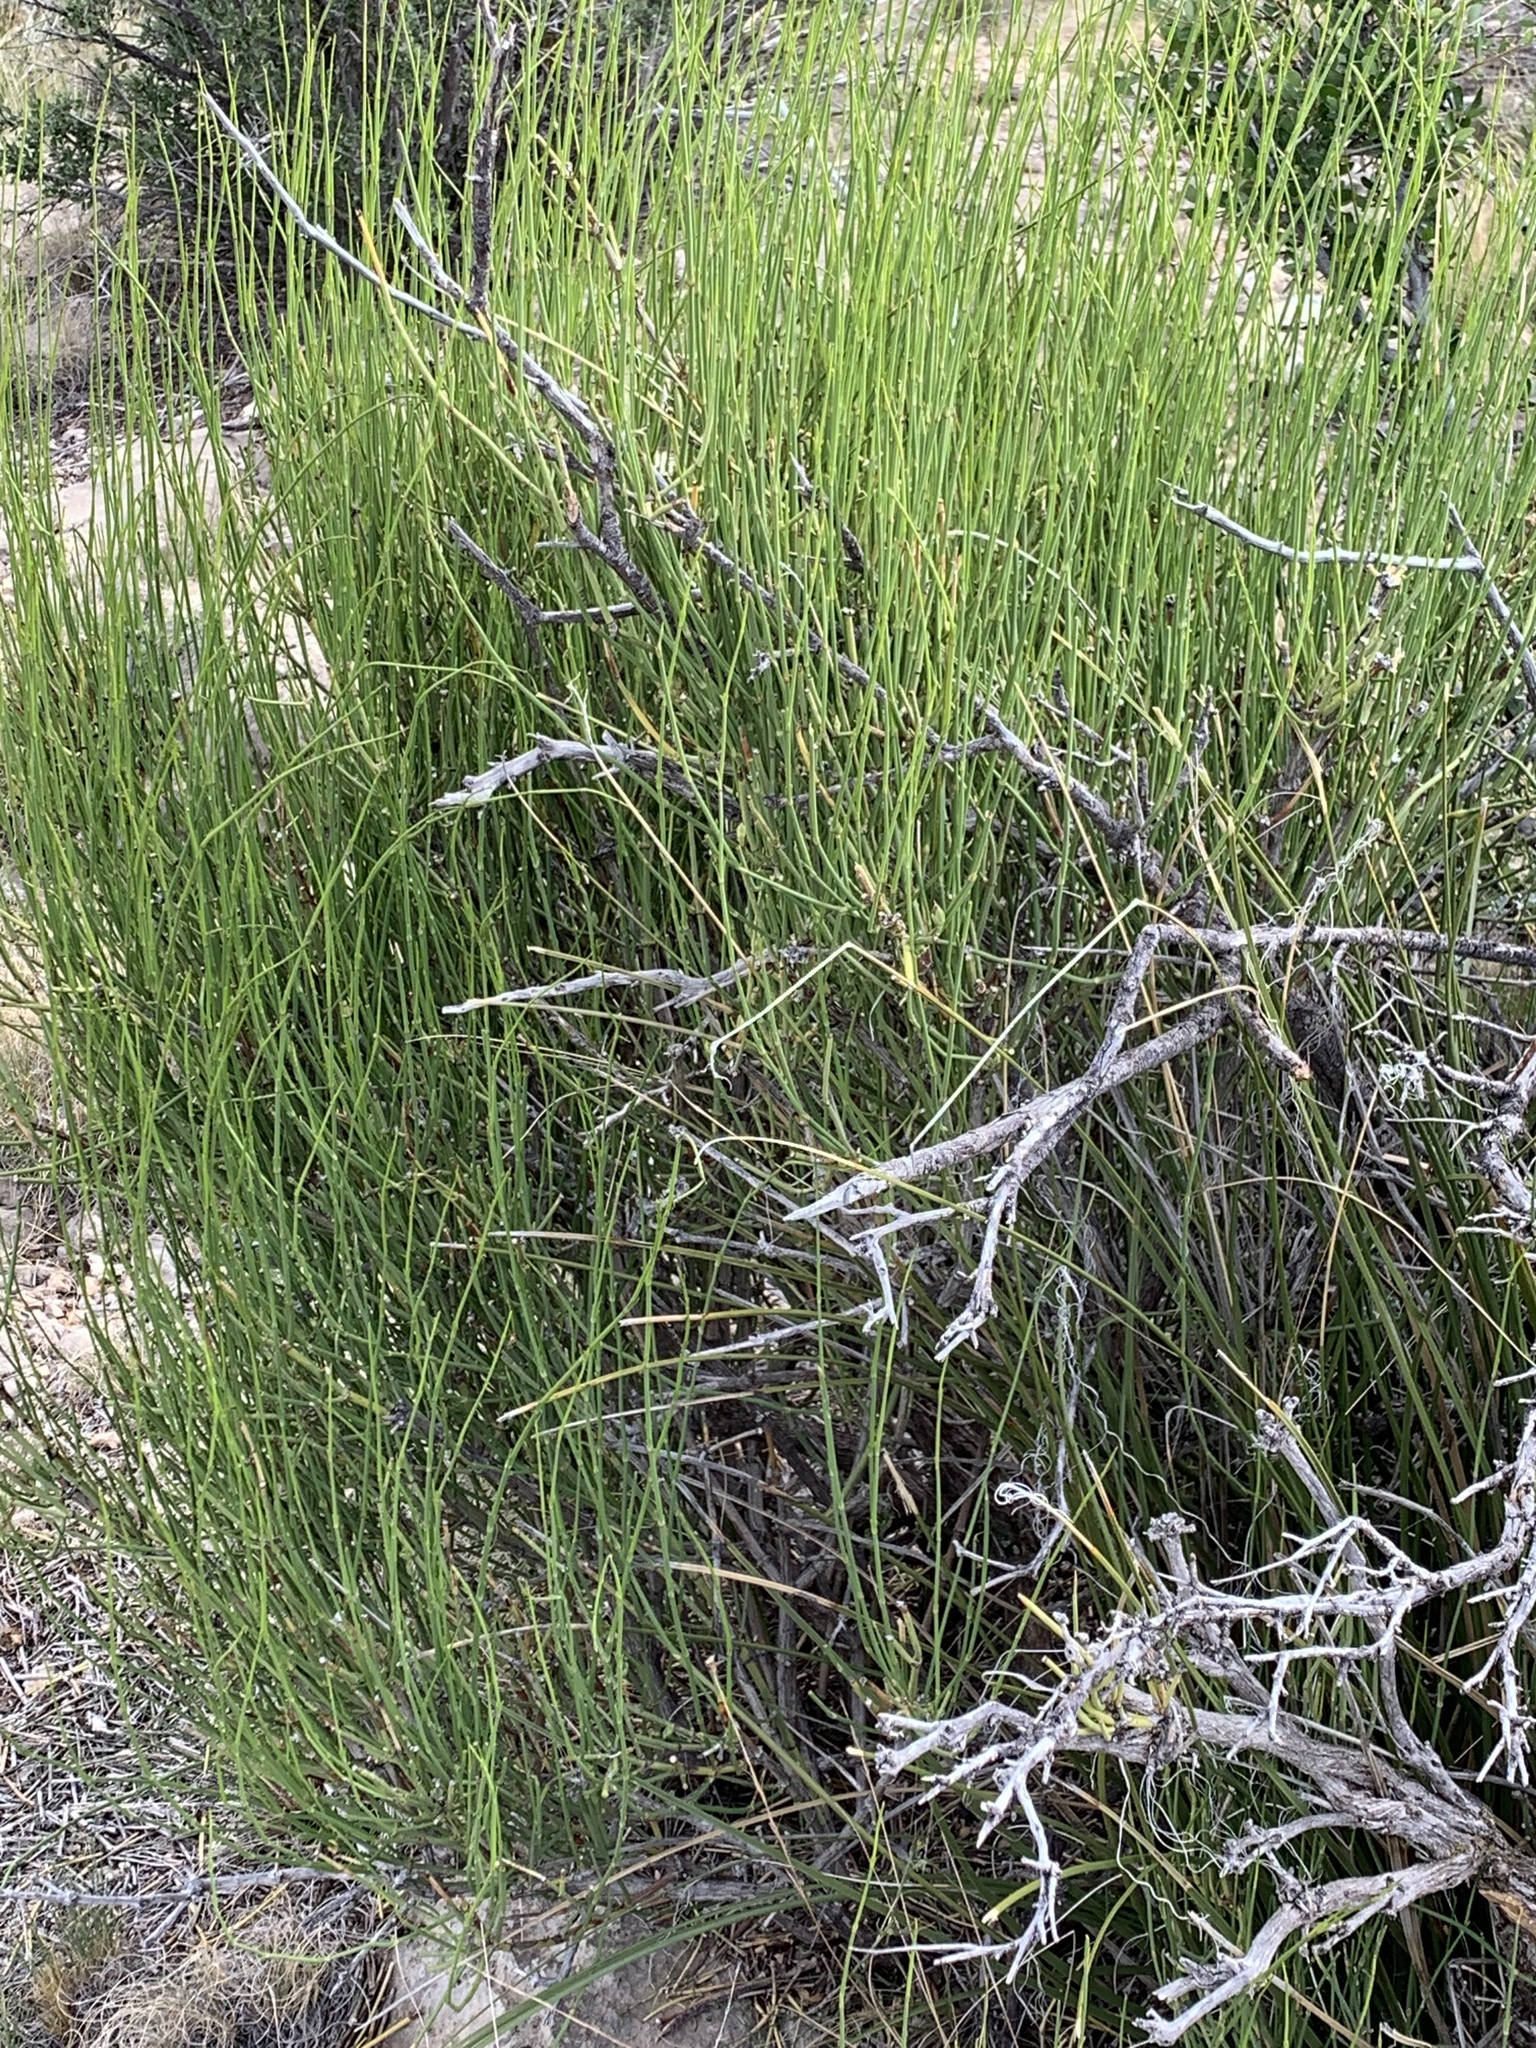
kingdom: Plantae
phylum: Tracheophyta
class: Gnetopsida
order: Ephedrales
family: Ephedraceae
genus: Ephedra
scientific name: Ephedra viridis
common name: Green ephedra
